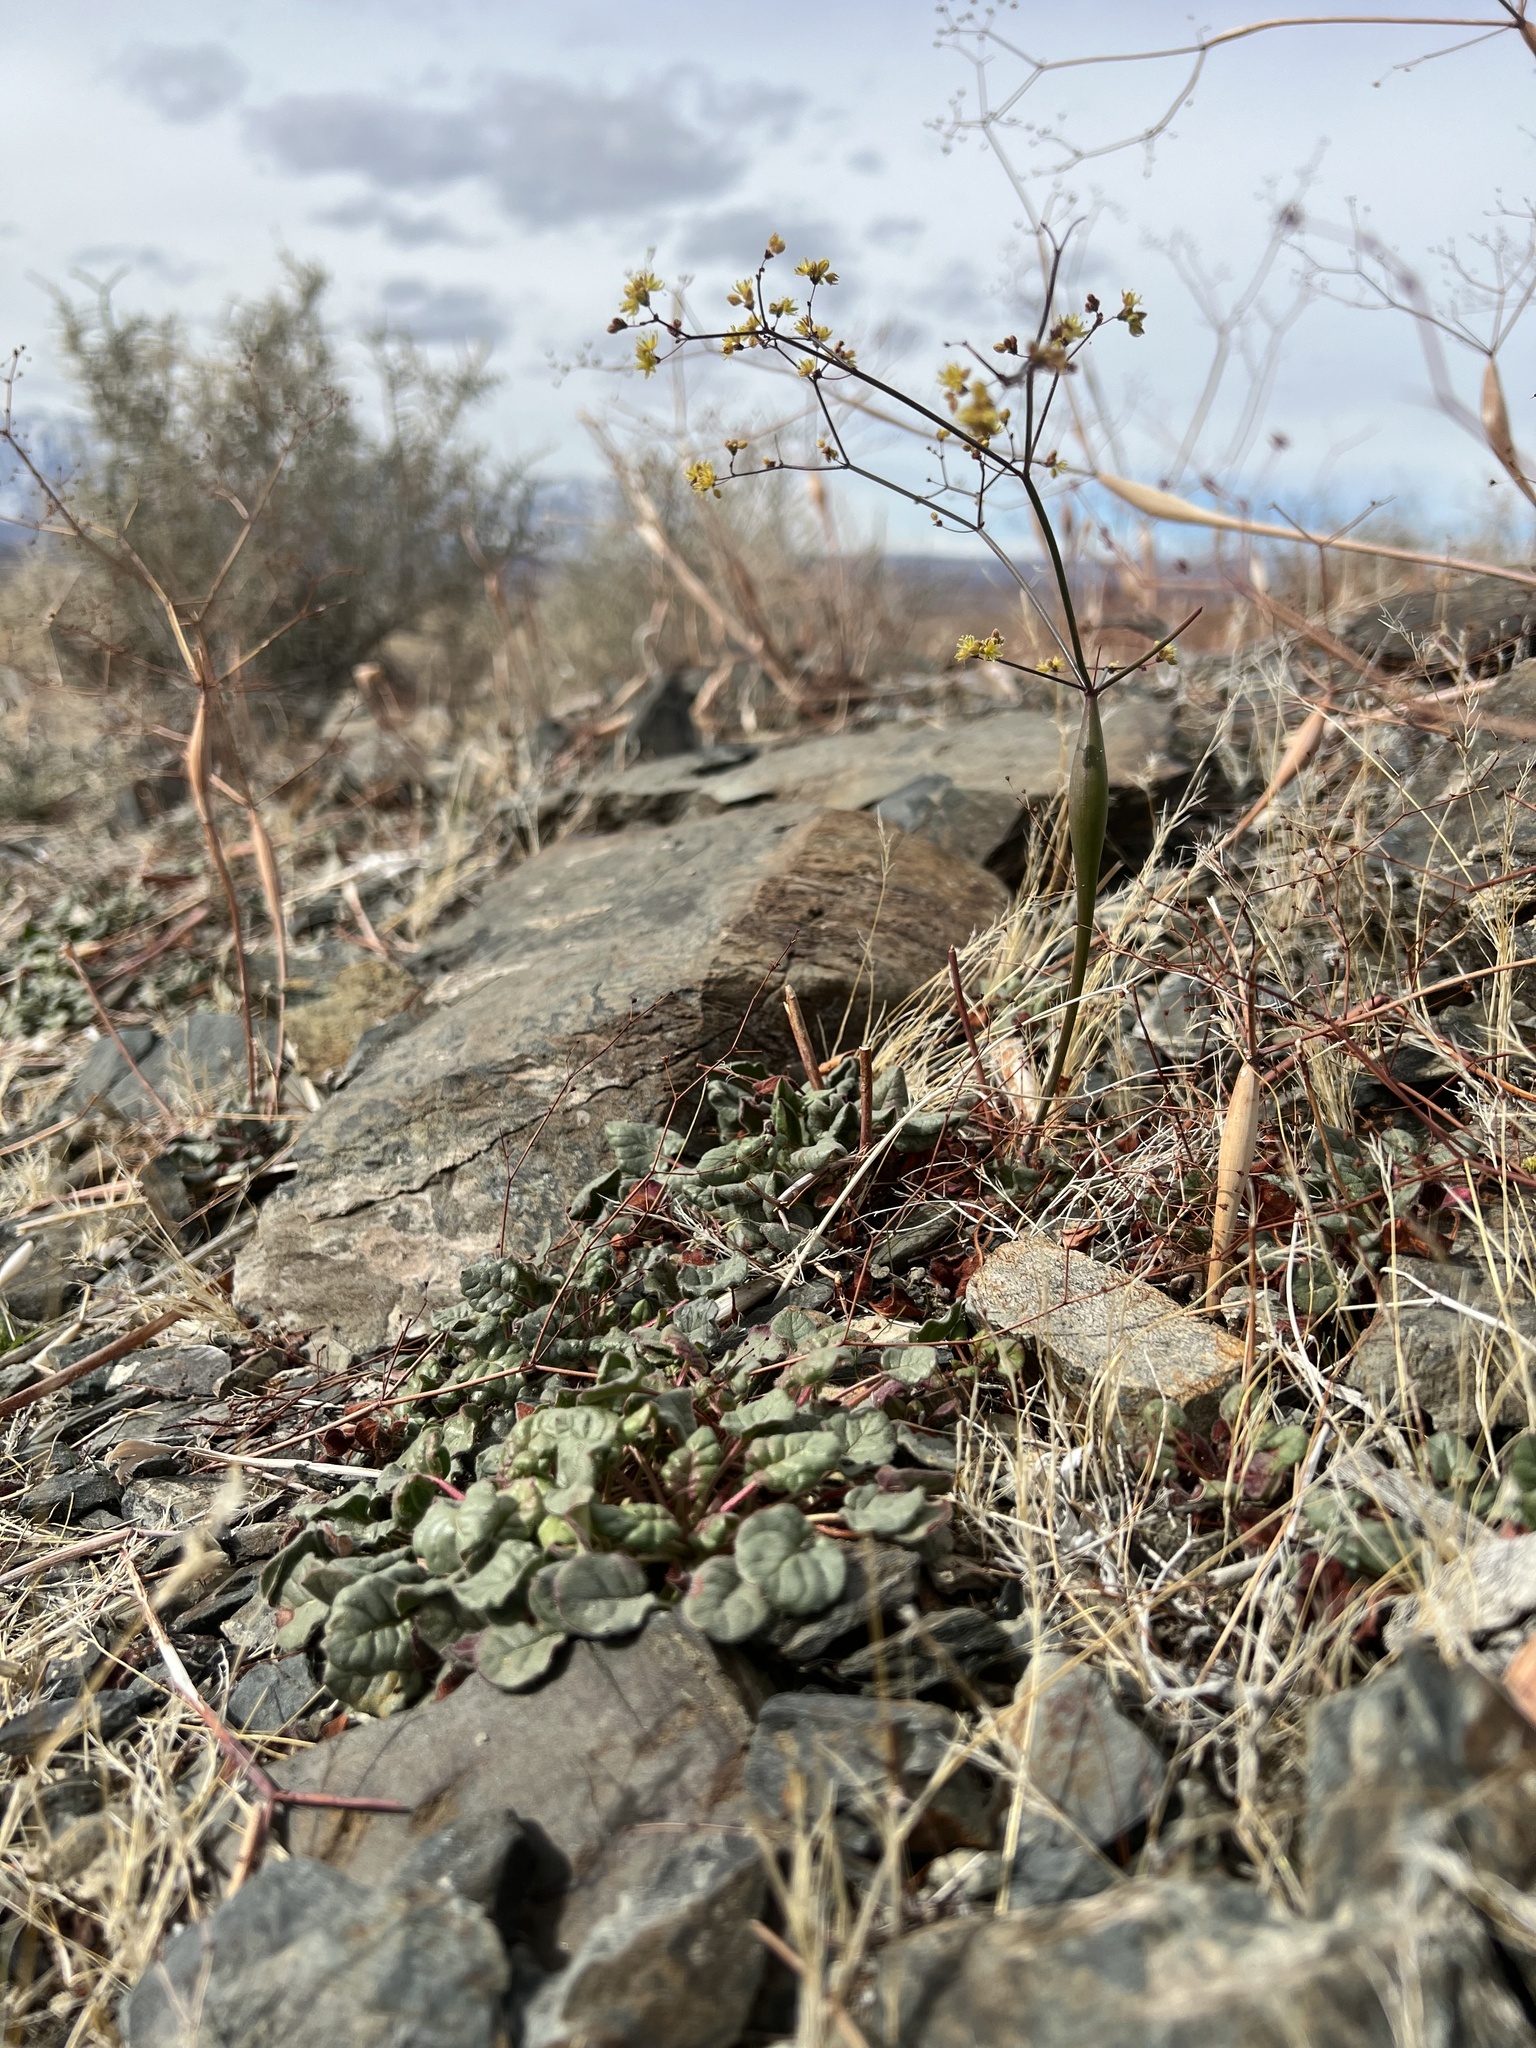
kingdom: Plantae
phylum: Tracheophyta
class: Magnoliopsida
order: Caryophyllales
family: Polygonaceae
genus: Eriogonum
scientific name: Eriogonum inflatum
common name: Desert trumpet
